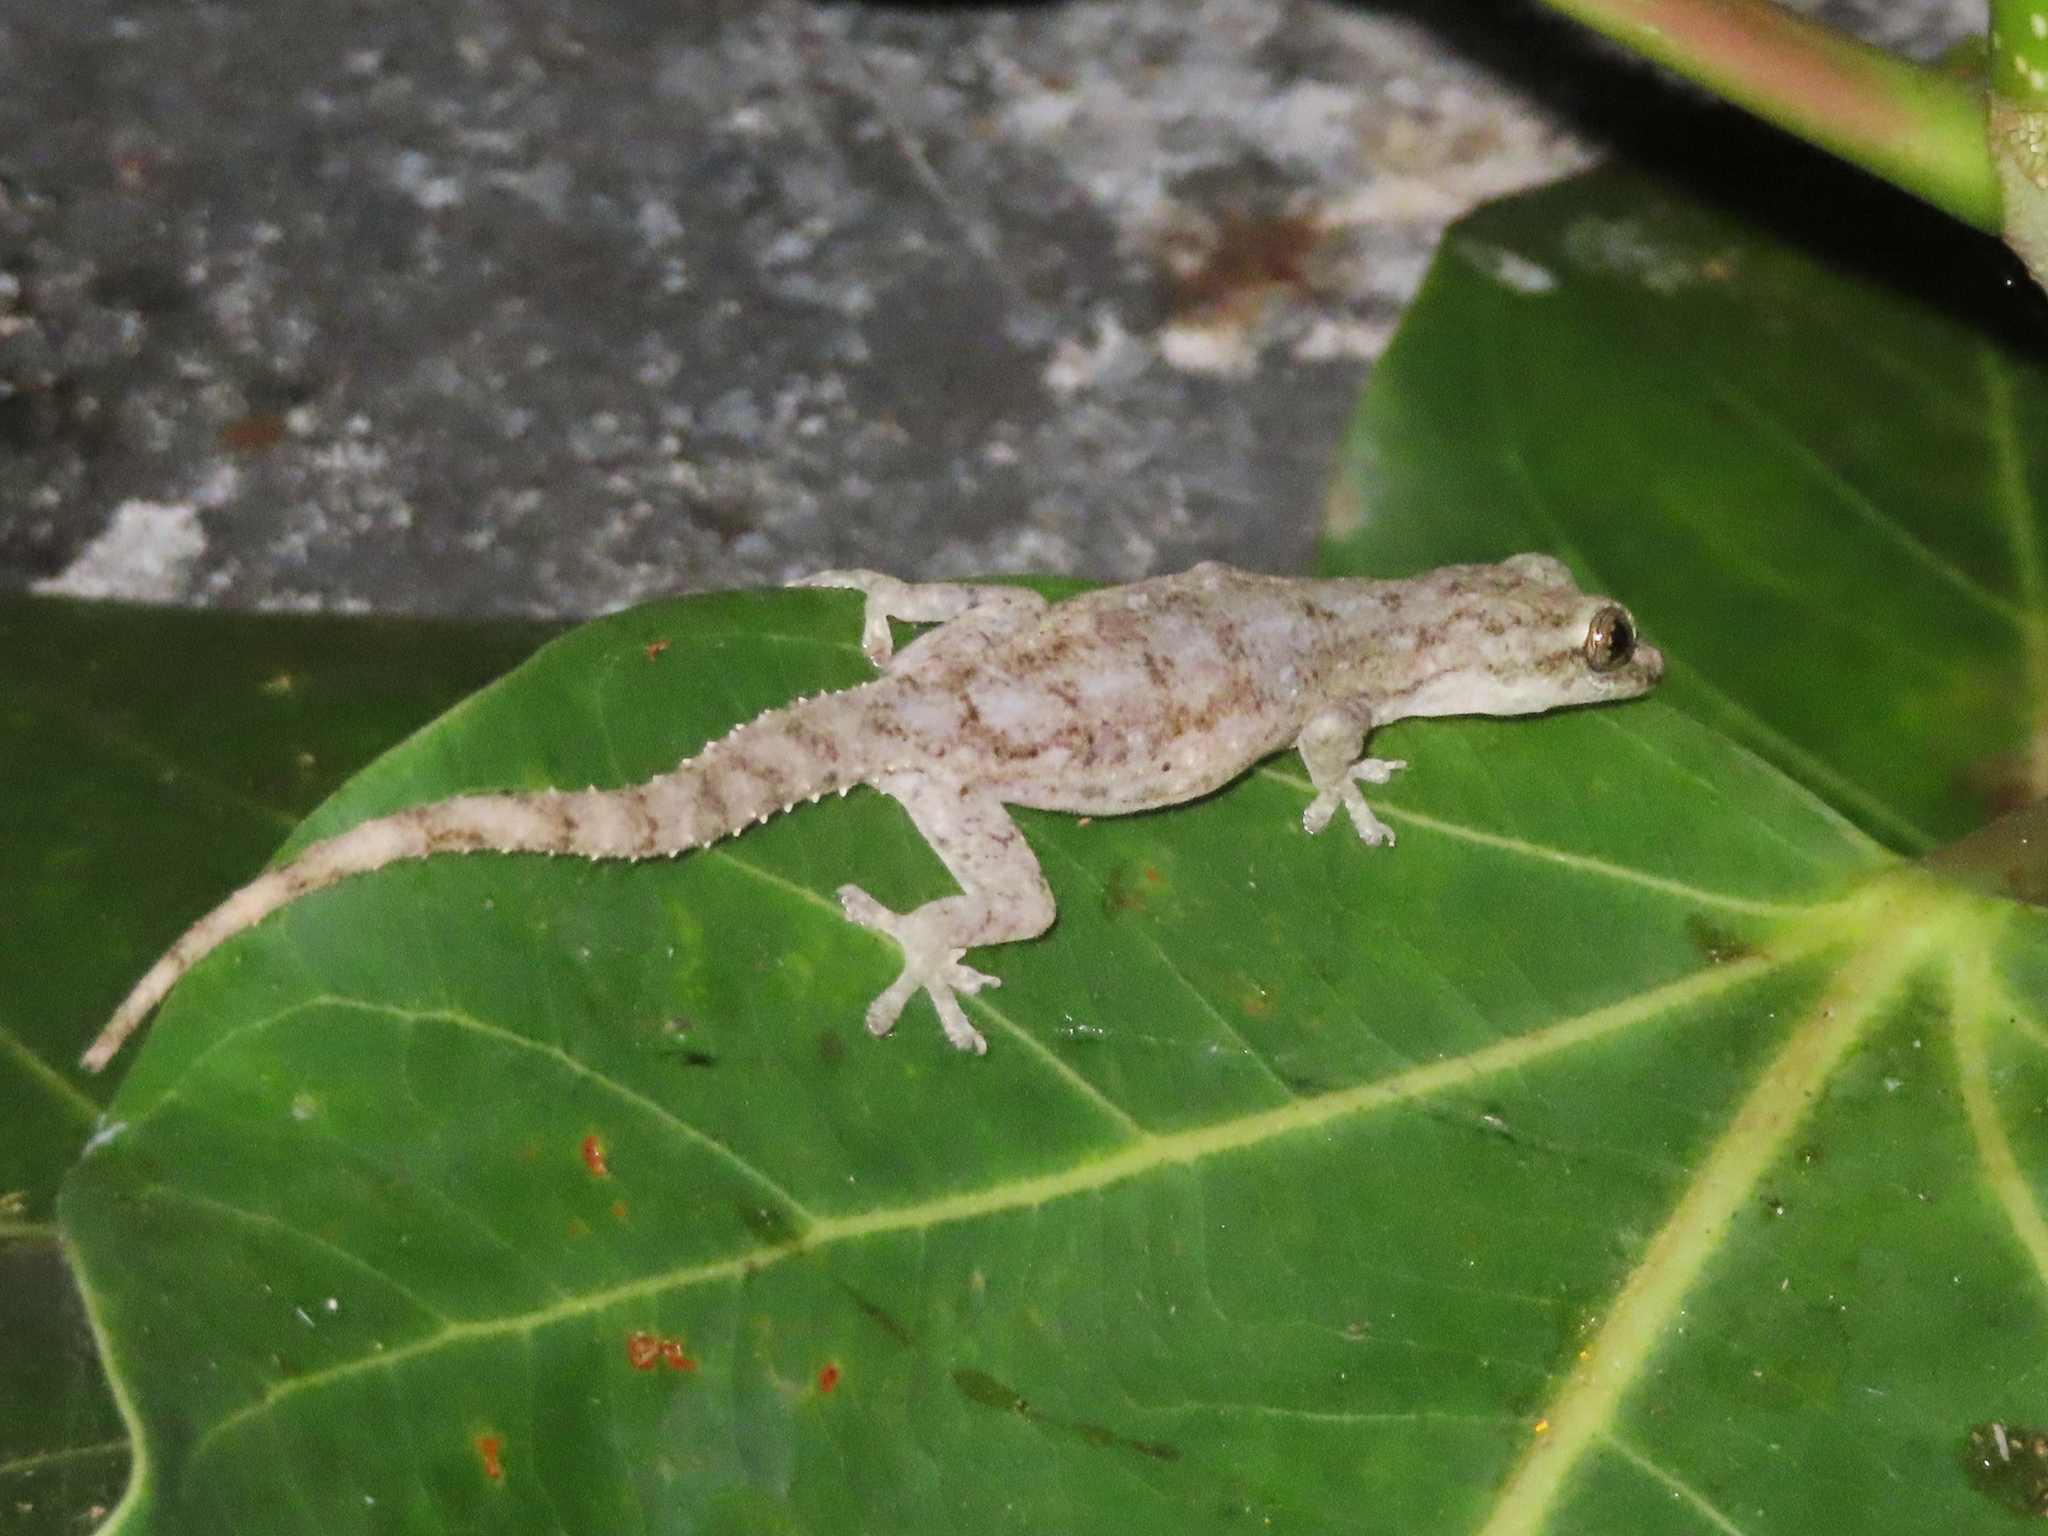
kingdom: Animalia
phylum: Chordata
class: Squamata
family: Gekkonidae
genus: Hemidactylus
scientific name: Hemidactylus frenatus
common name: Common house gecko
